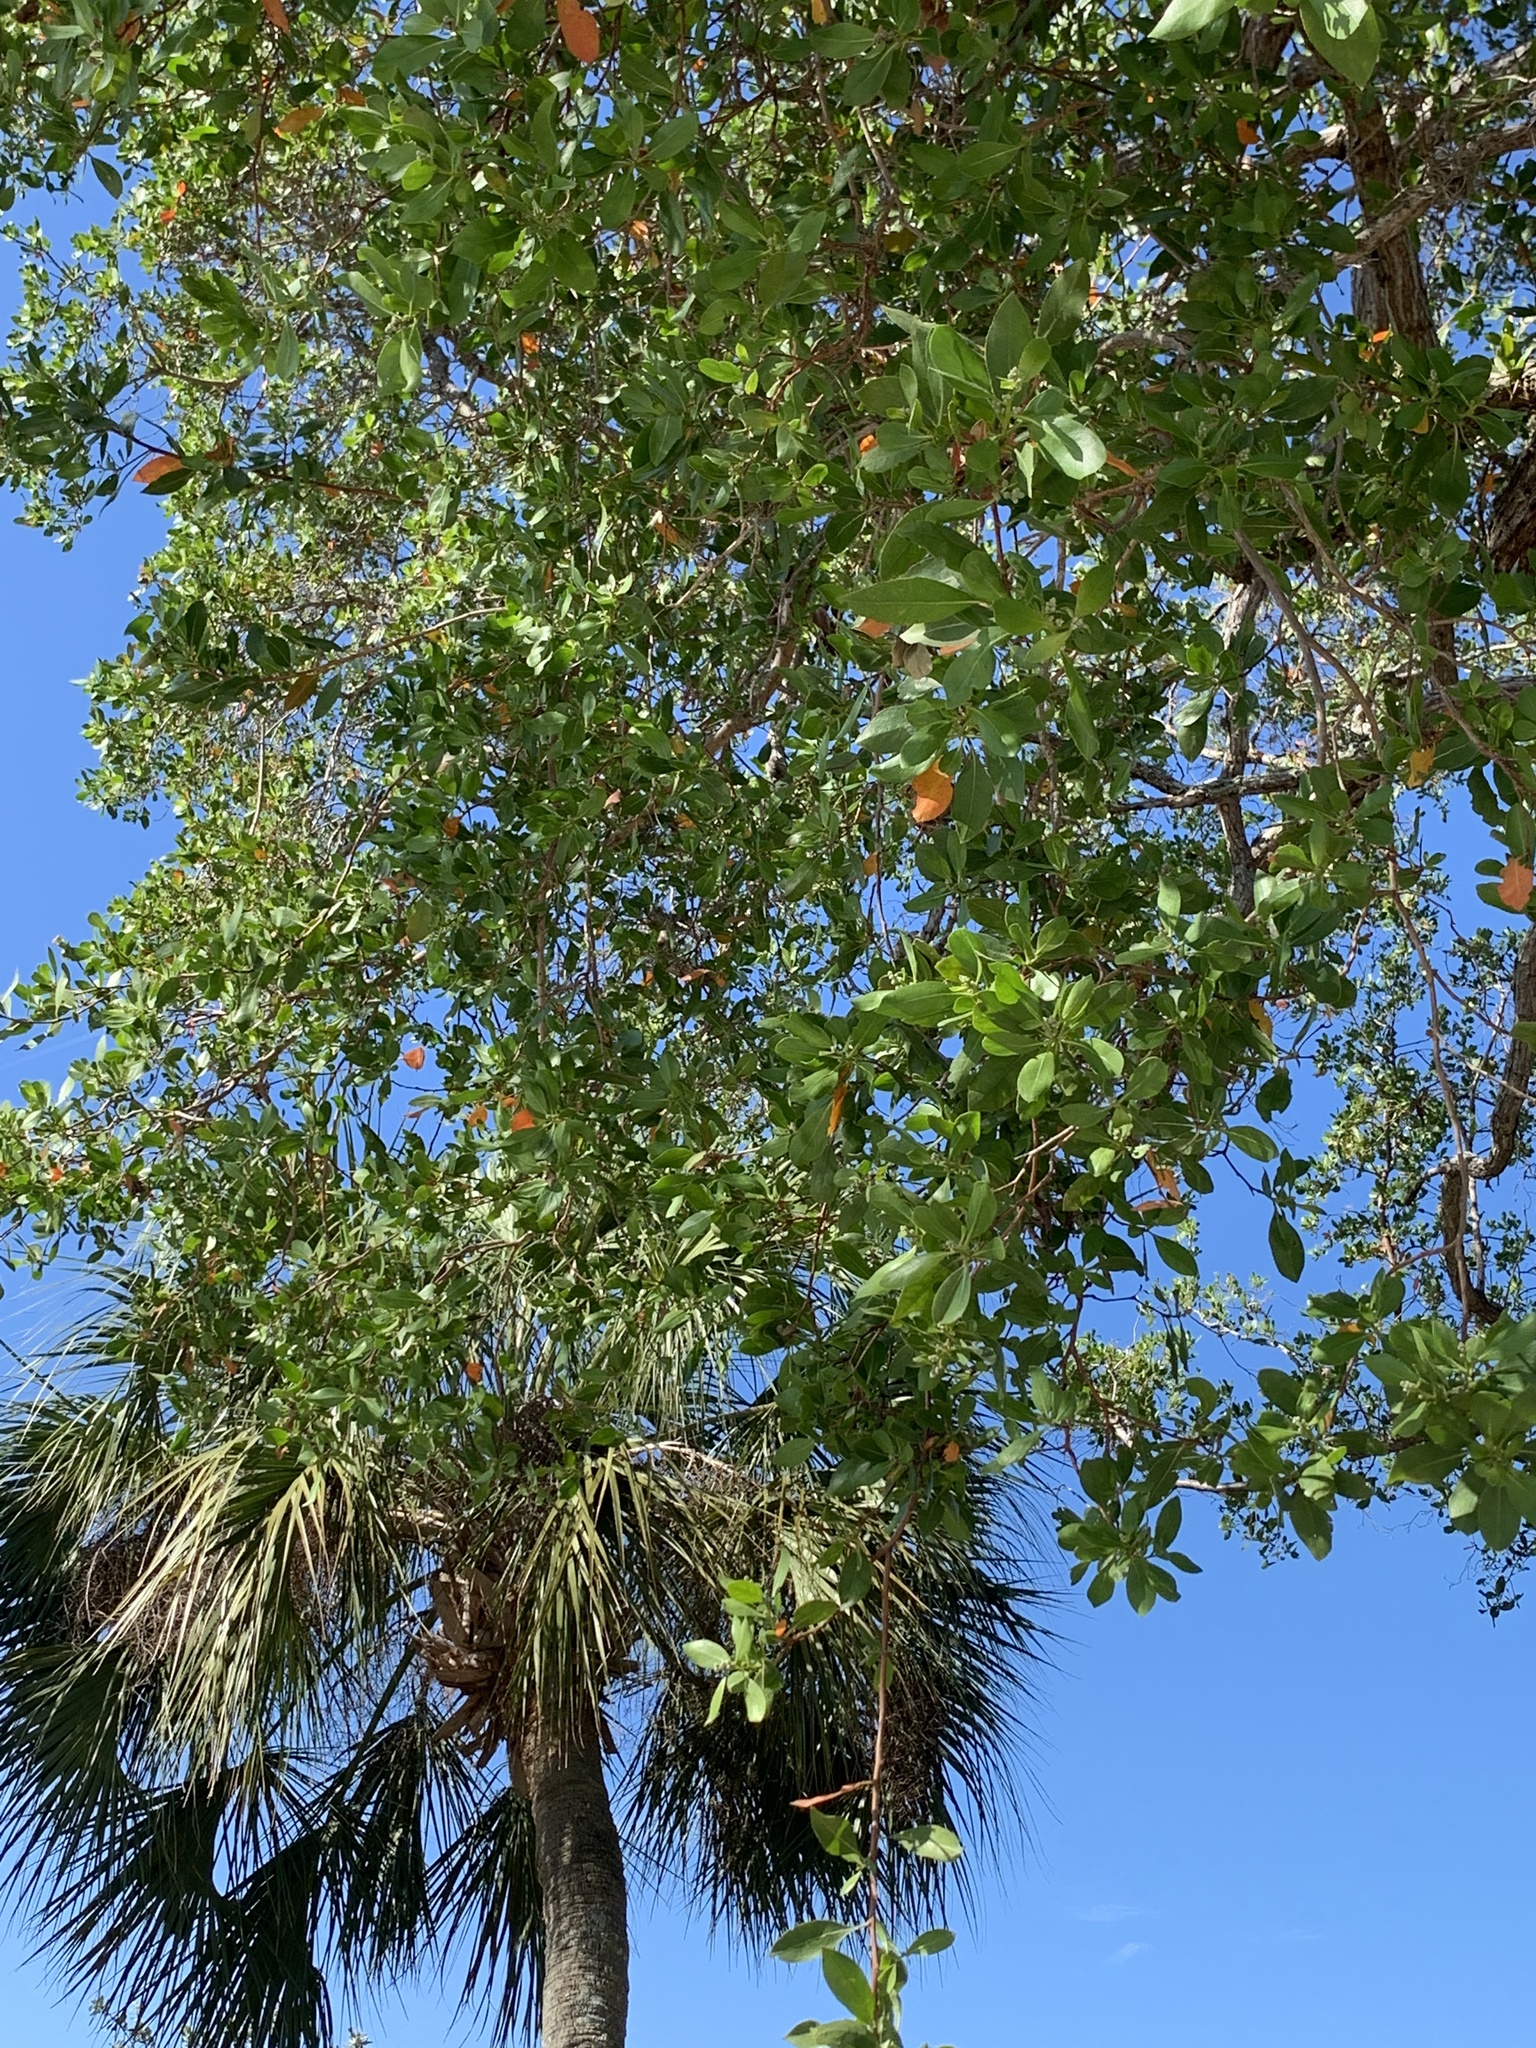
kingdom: Plantae
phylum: Tracheophyta
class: Magnoliopsida
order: Myrtales
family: Combretaceae
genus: Conocarpus
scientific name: Conocarpus erectus
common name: Button mangrove
